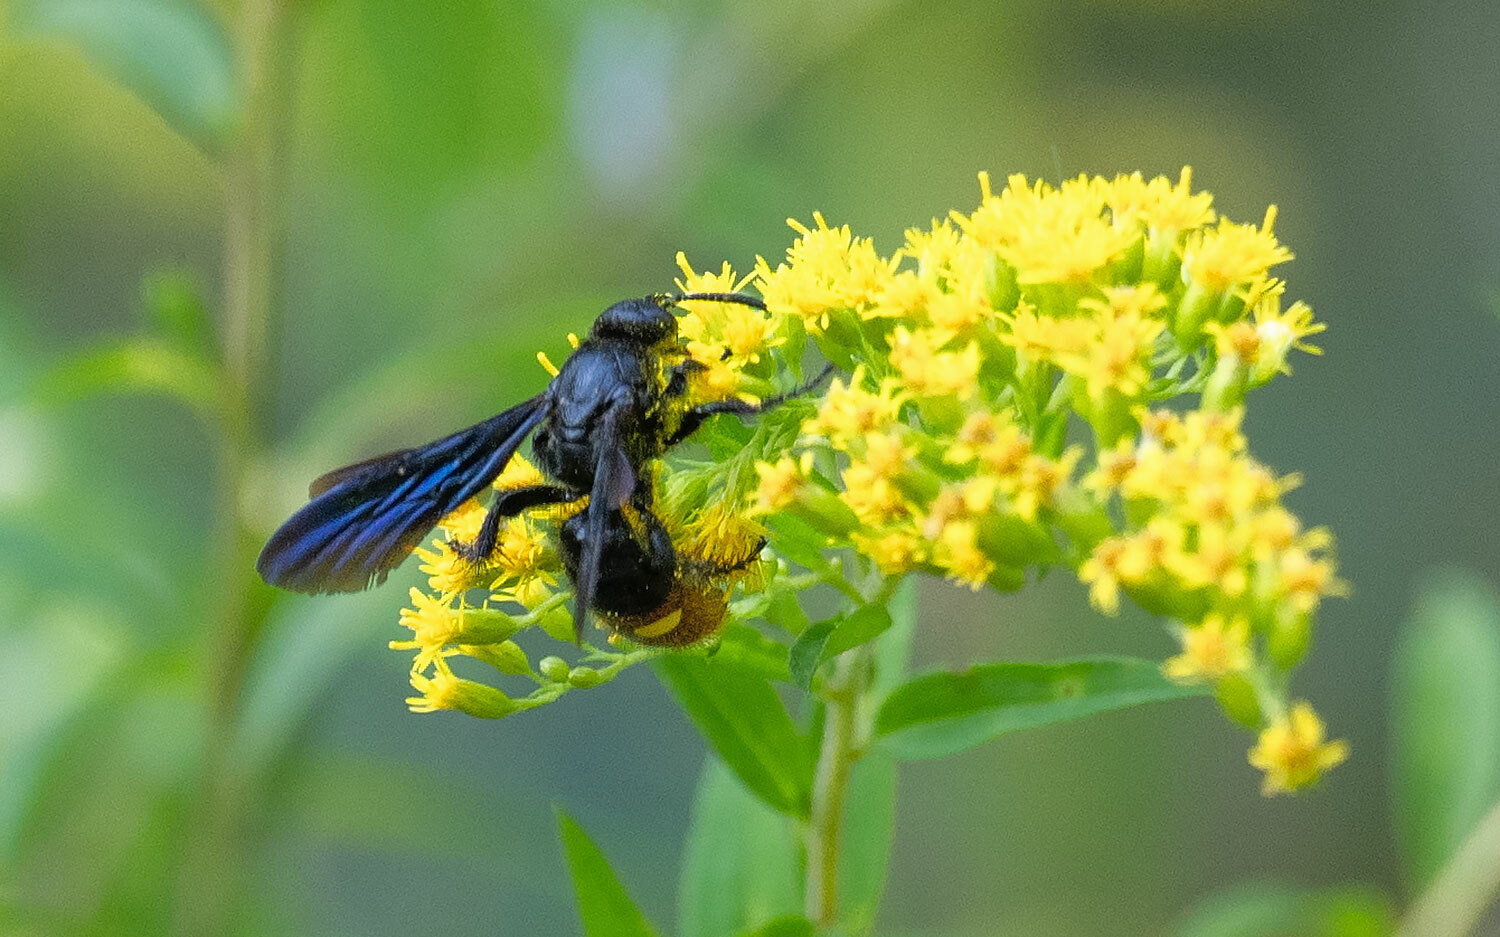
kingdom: Animalia
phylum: Arthropoda
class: Insecta
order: Hymenoptera
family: Scoliidae
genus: Scolia
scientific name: Scolia dubia
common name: Blue-winged scoliid wasp
